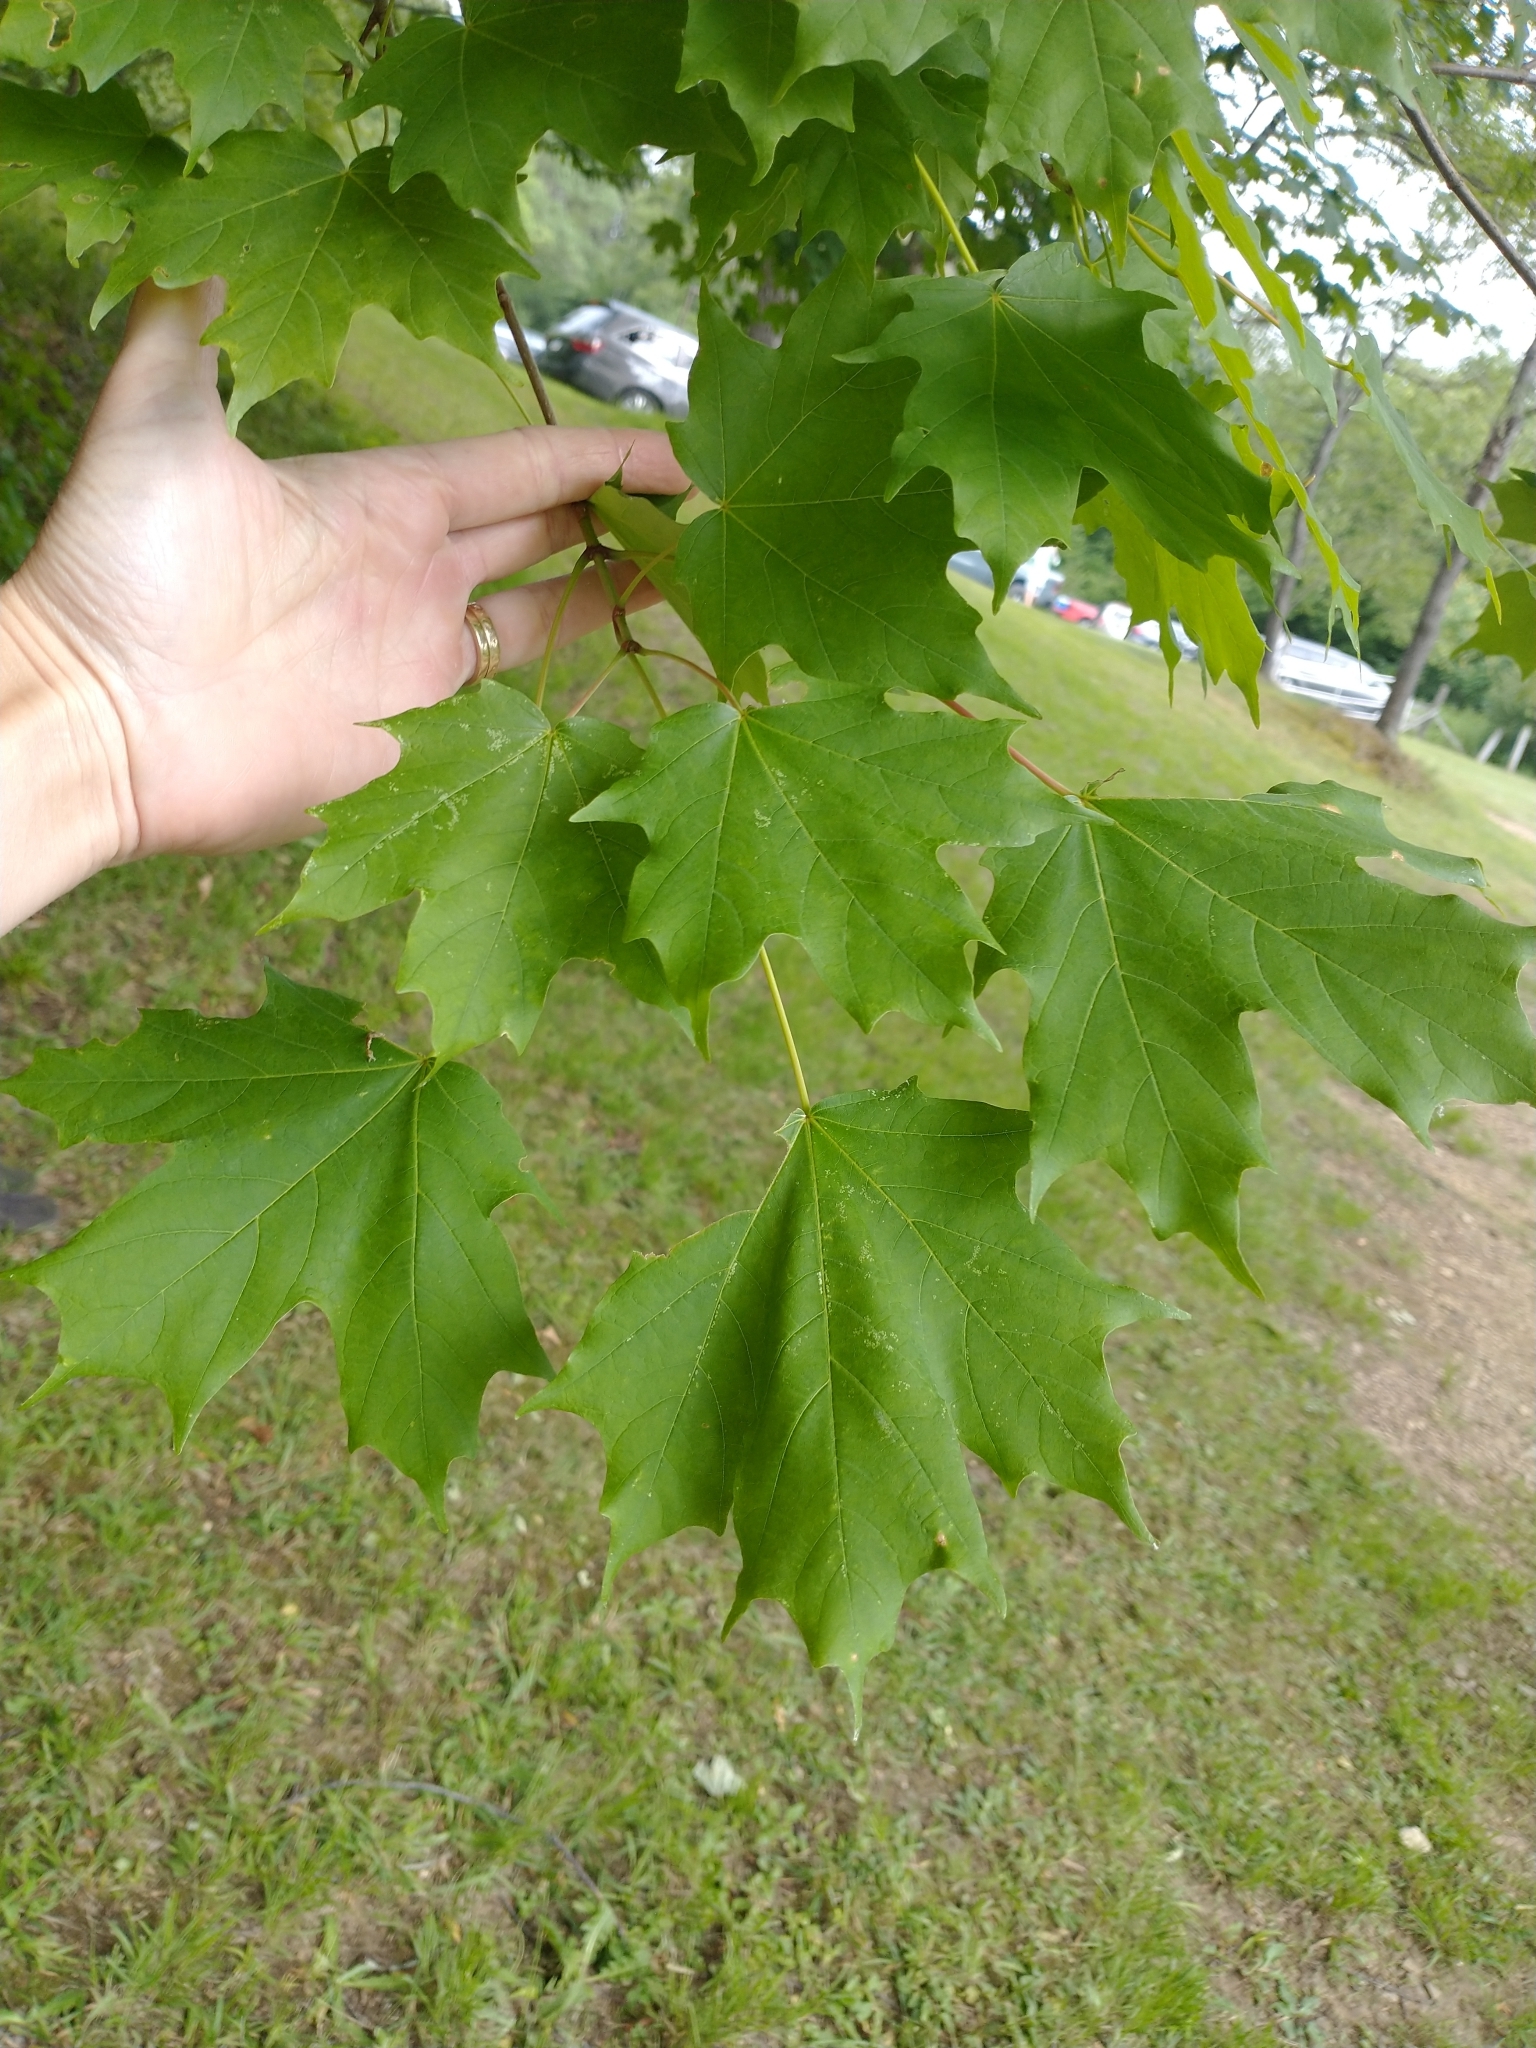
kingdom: Plantae
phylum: Tracheophyta
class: Magnoliopsida
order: Sapindales
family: Sapindaceae
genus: Acer
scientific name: Acer saccharum
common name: Sugar maple
